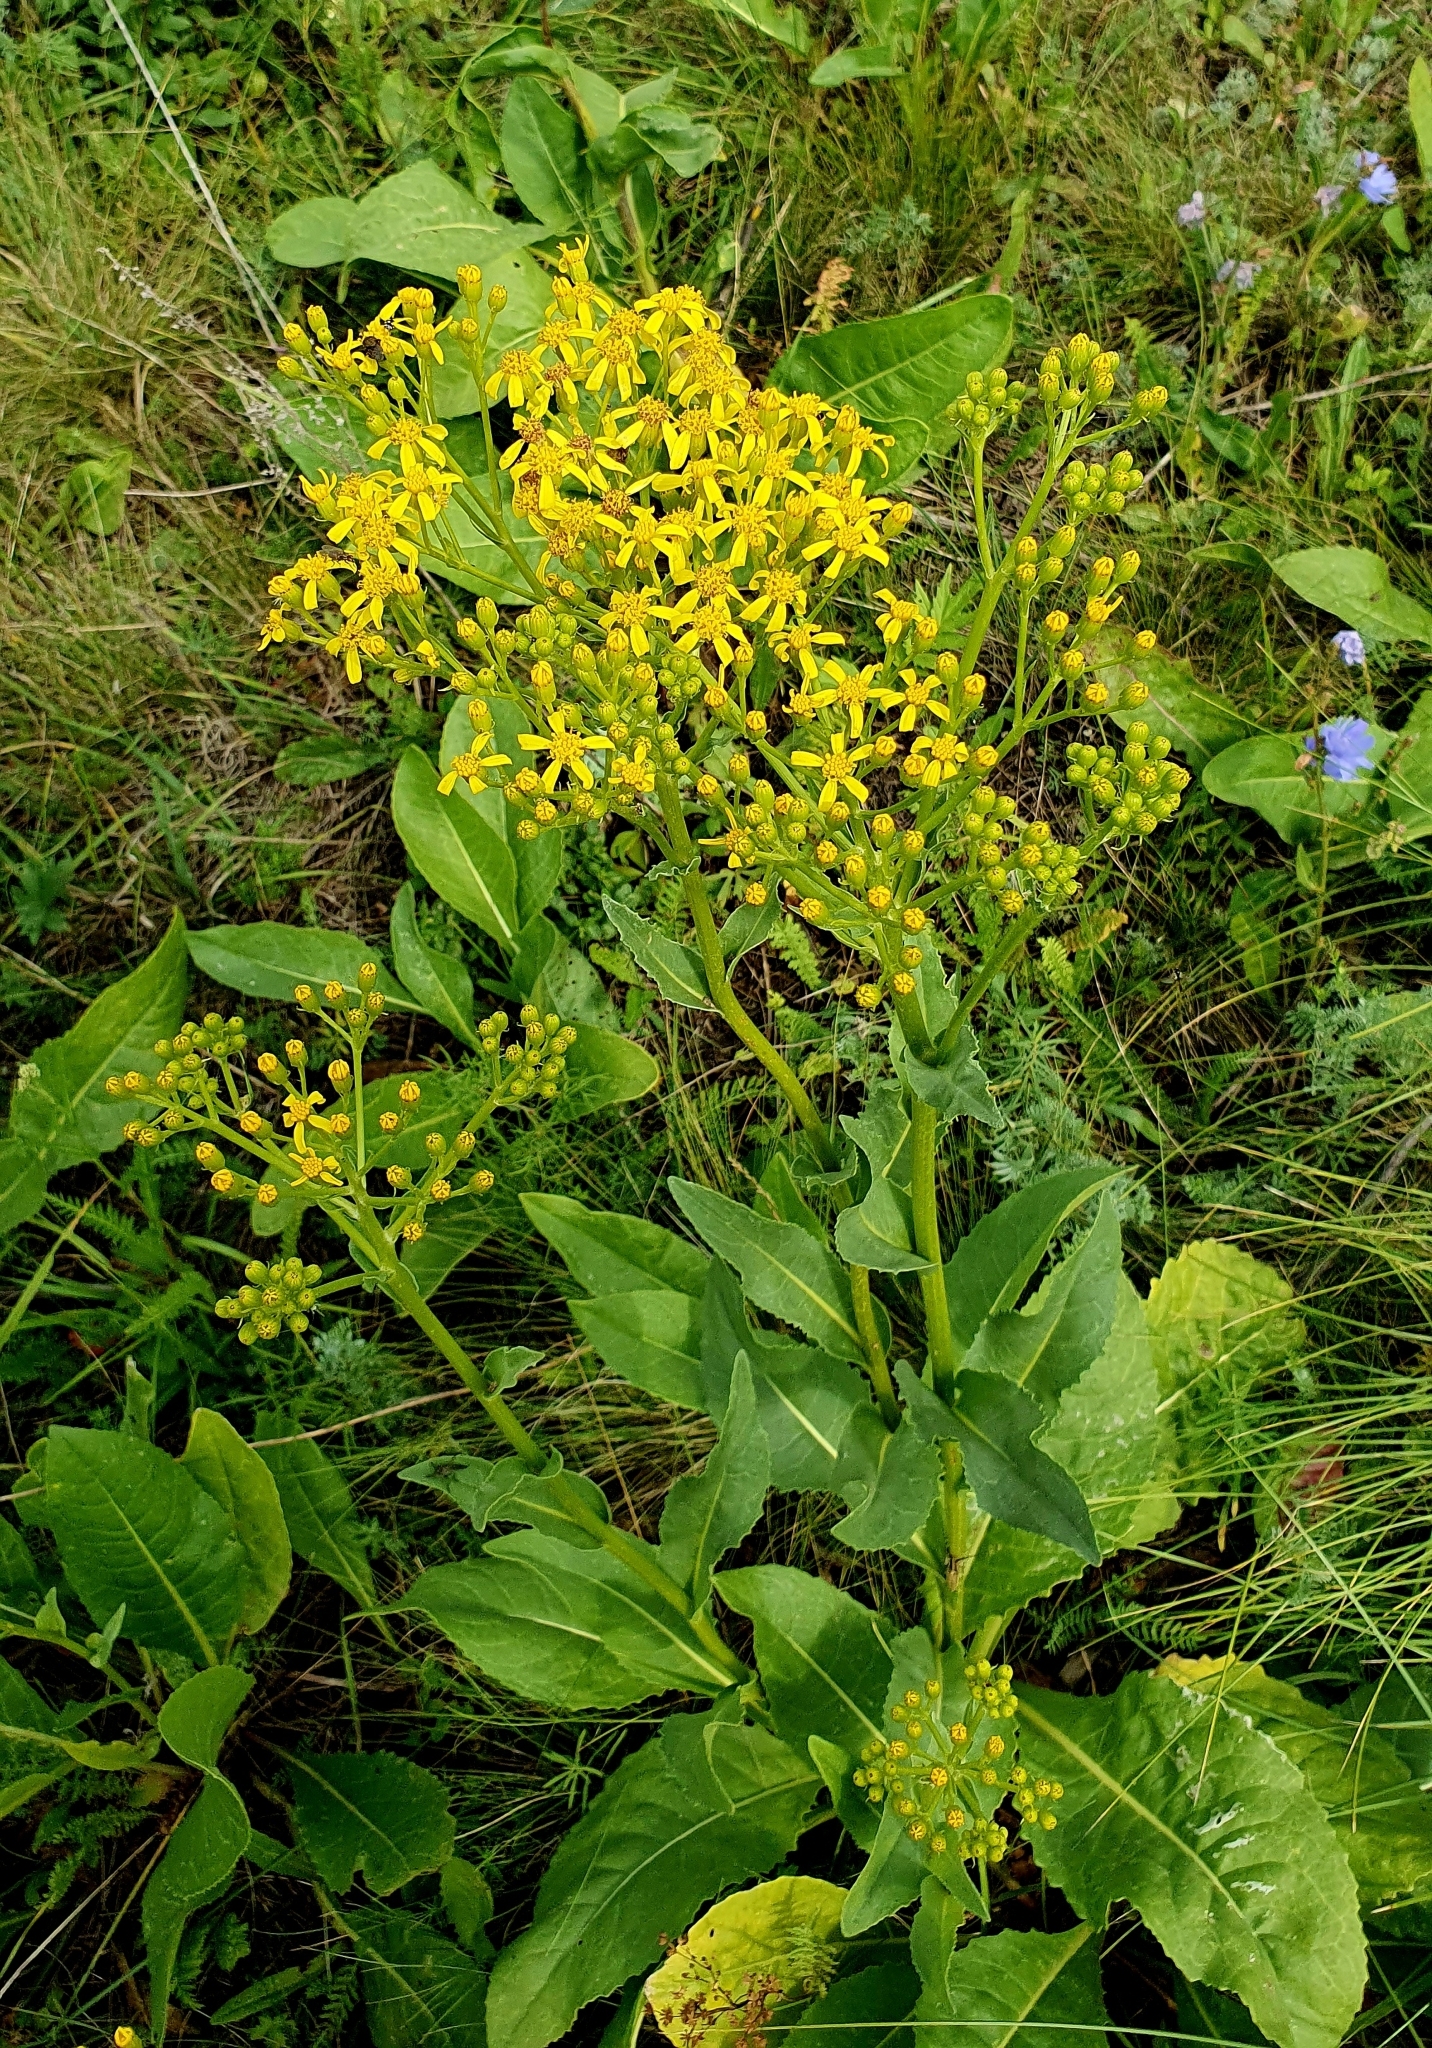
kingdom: Plantae
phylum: Tracheophyta
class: Magnoliopsida
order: Asterales
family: Asteraceae
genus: Senecio
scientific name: Senecio doria
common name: Golden ragwort
